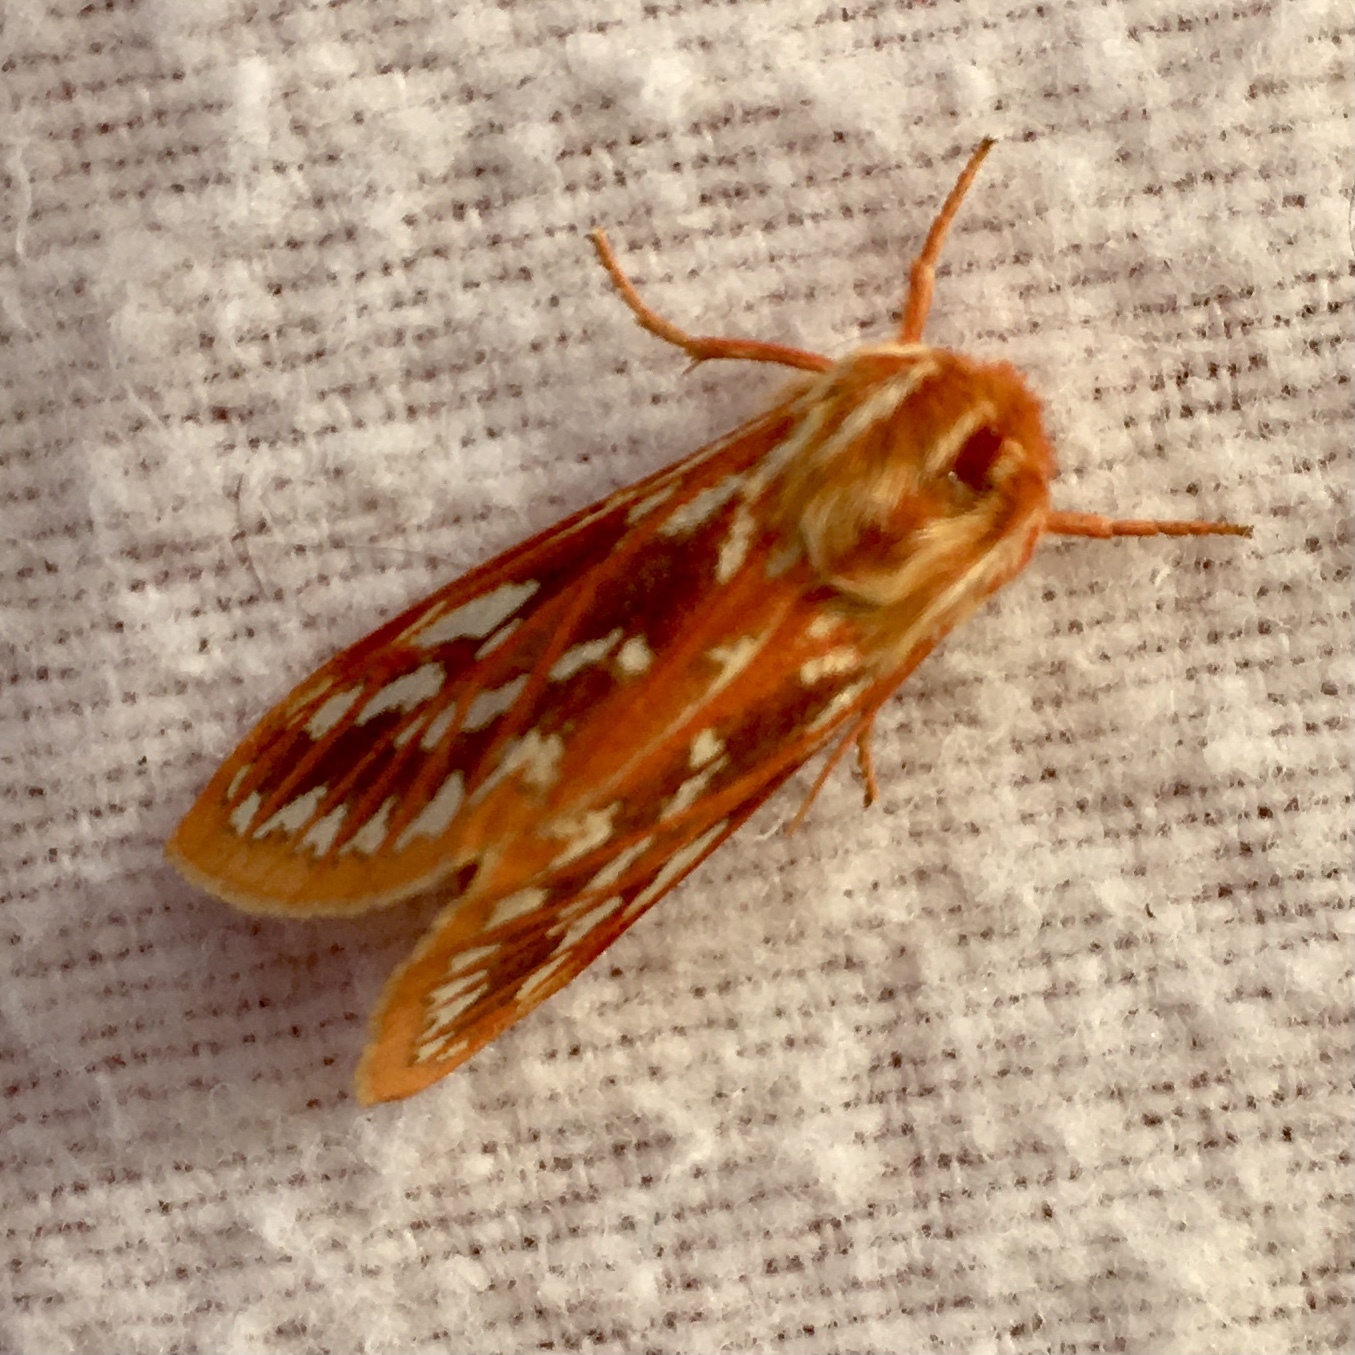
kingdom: Animalia
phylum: Arthropoda
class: Insecta
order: Lepidoptera
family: Erebidae
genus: Lophocampa
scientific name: Lophocampa roseata
